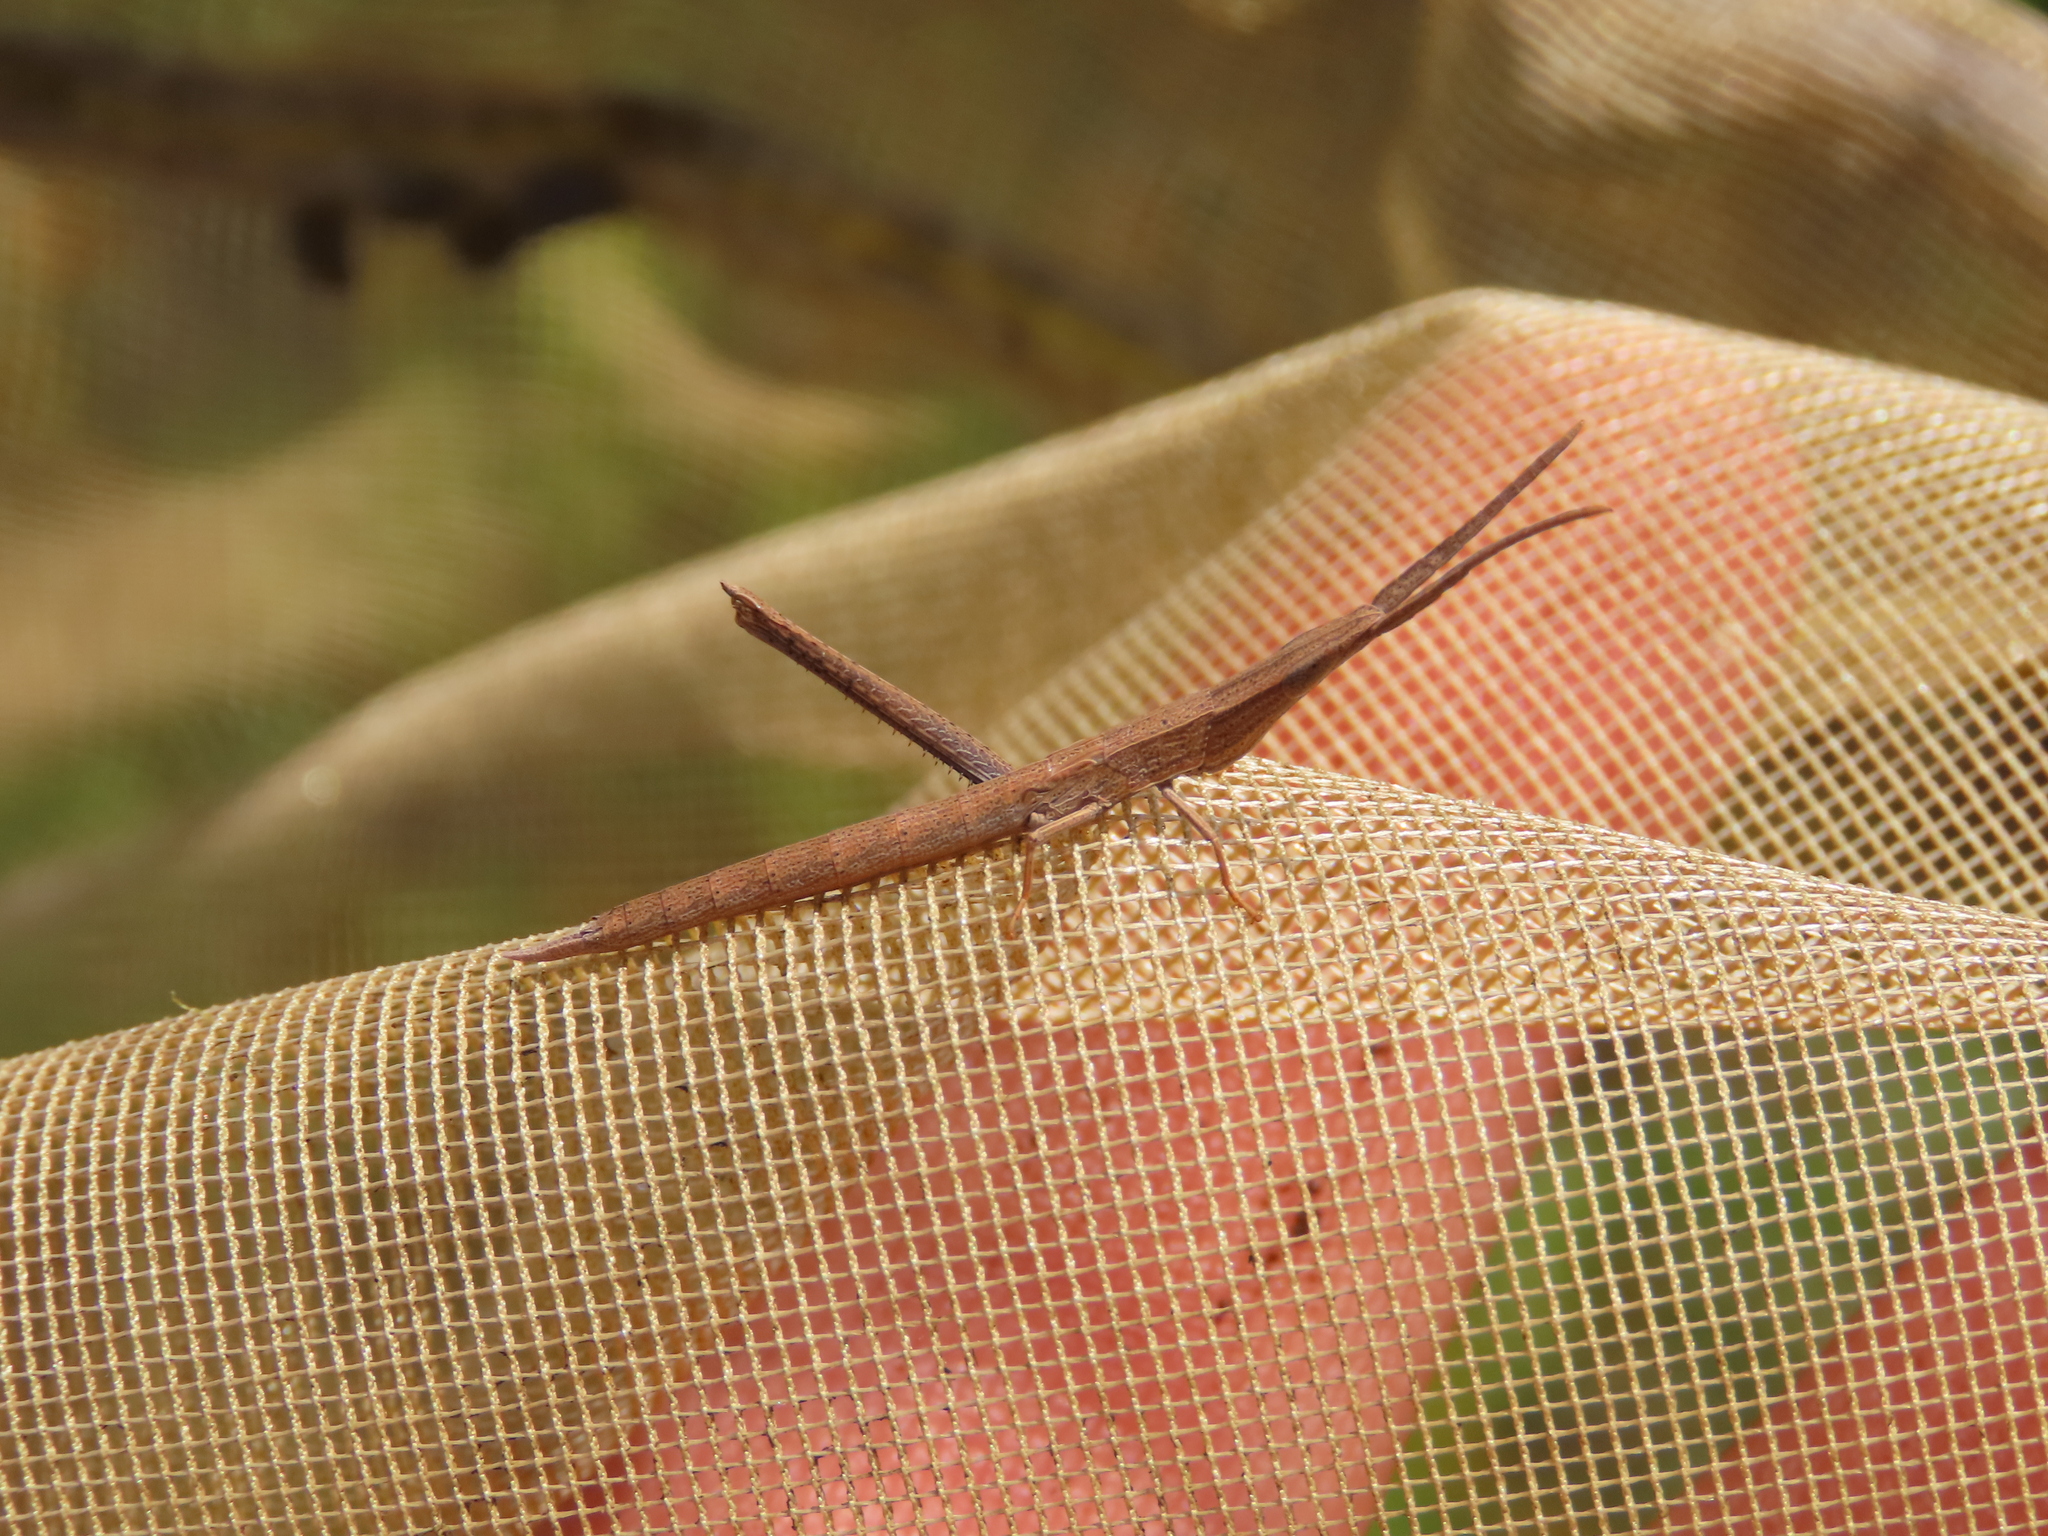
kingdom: Animalia
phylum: Arthropoda
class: Insecta
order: Orthoptera
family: Acrididae
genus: Achurum
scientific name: Achurum carinatum
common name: Long-headed toothpick grasshopper
